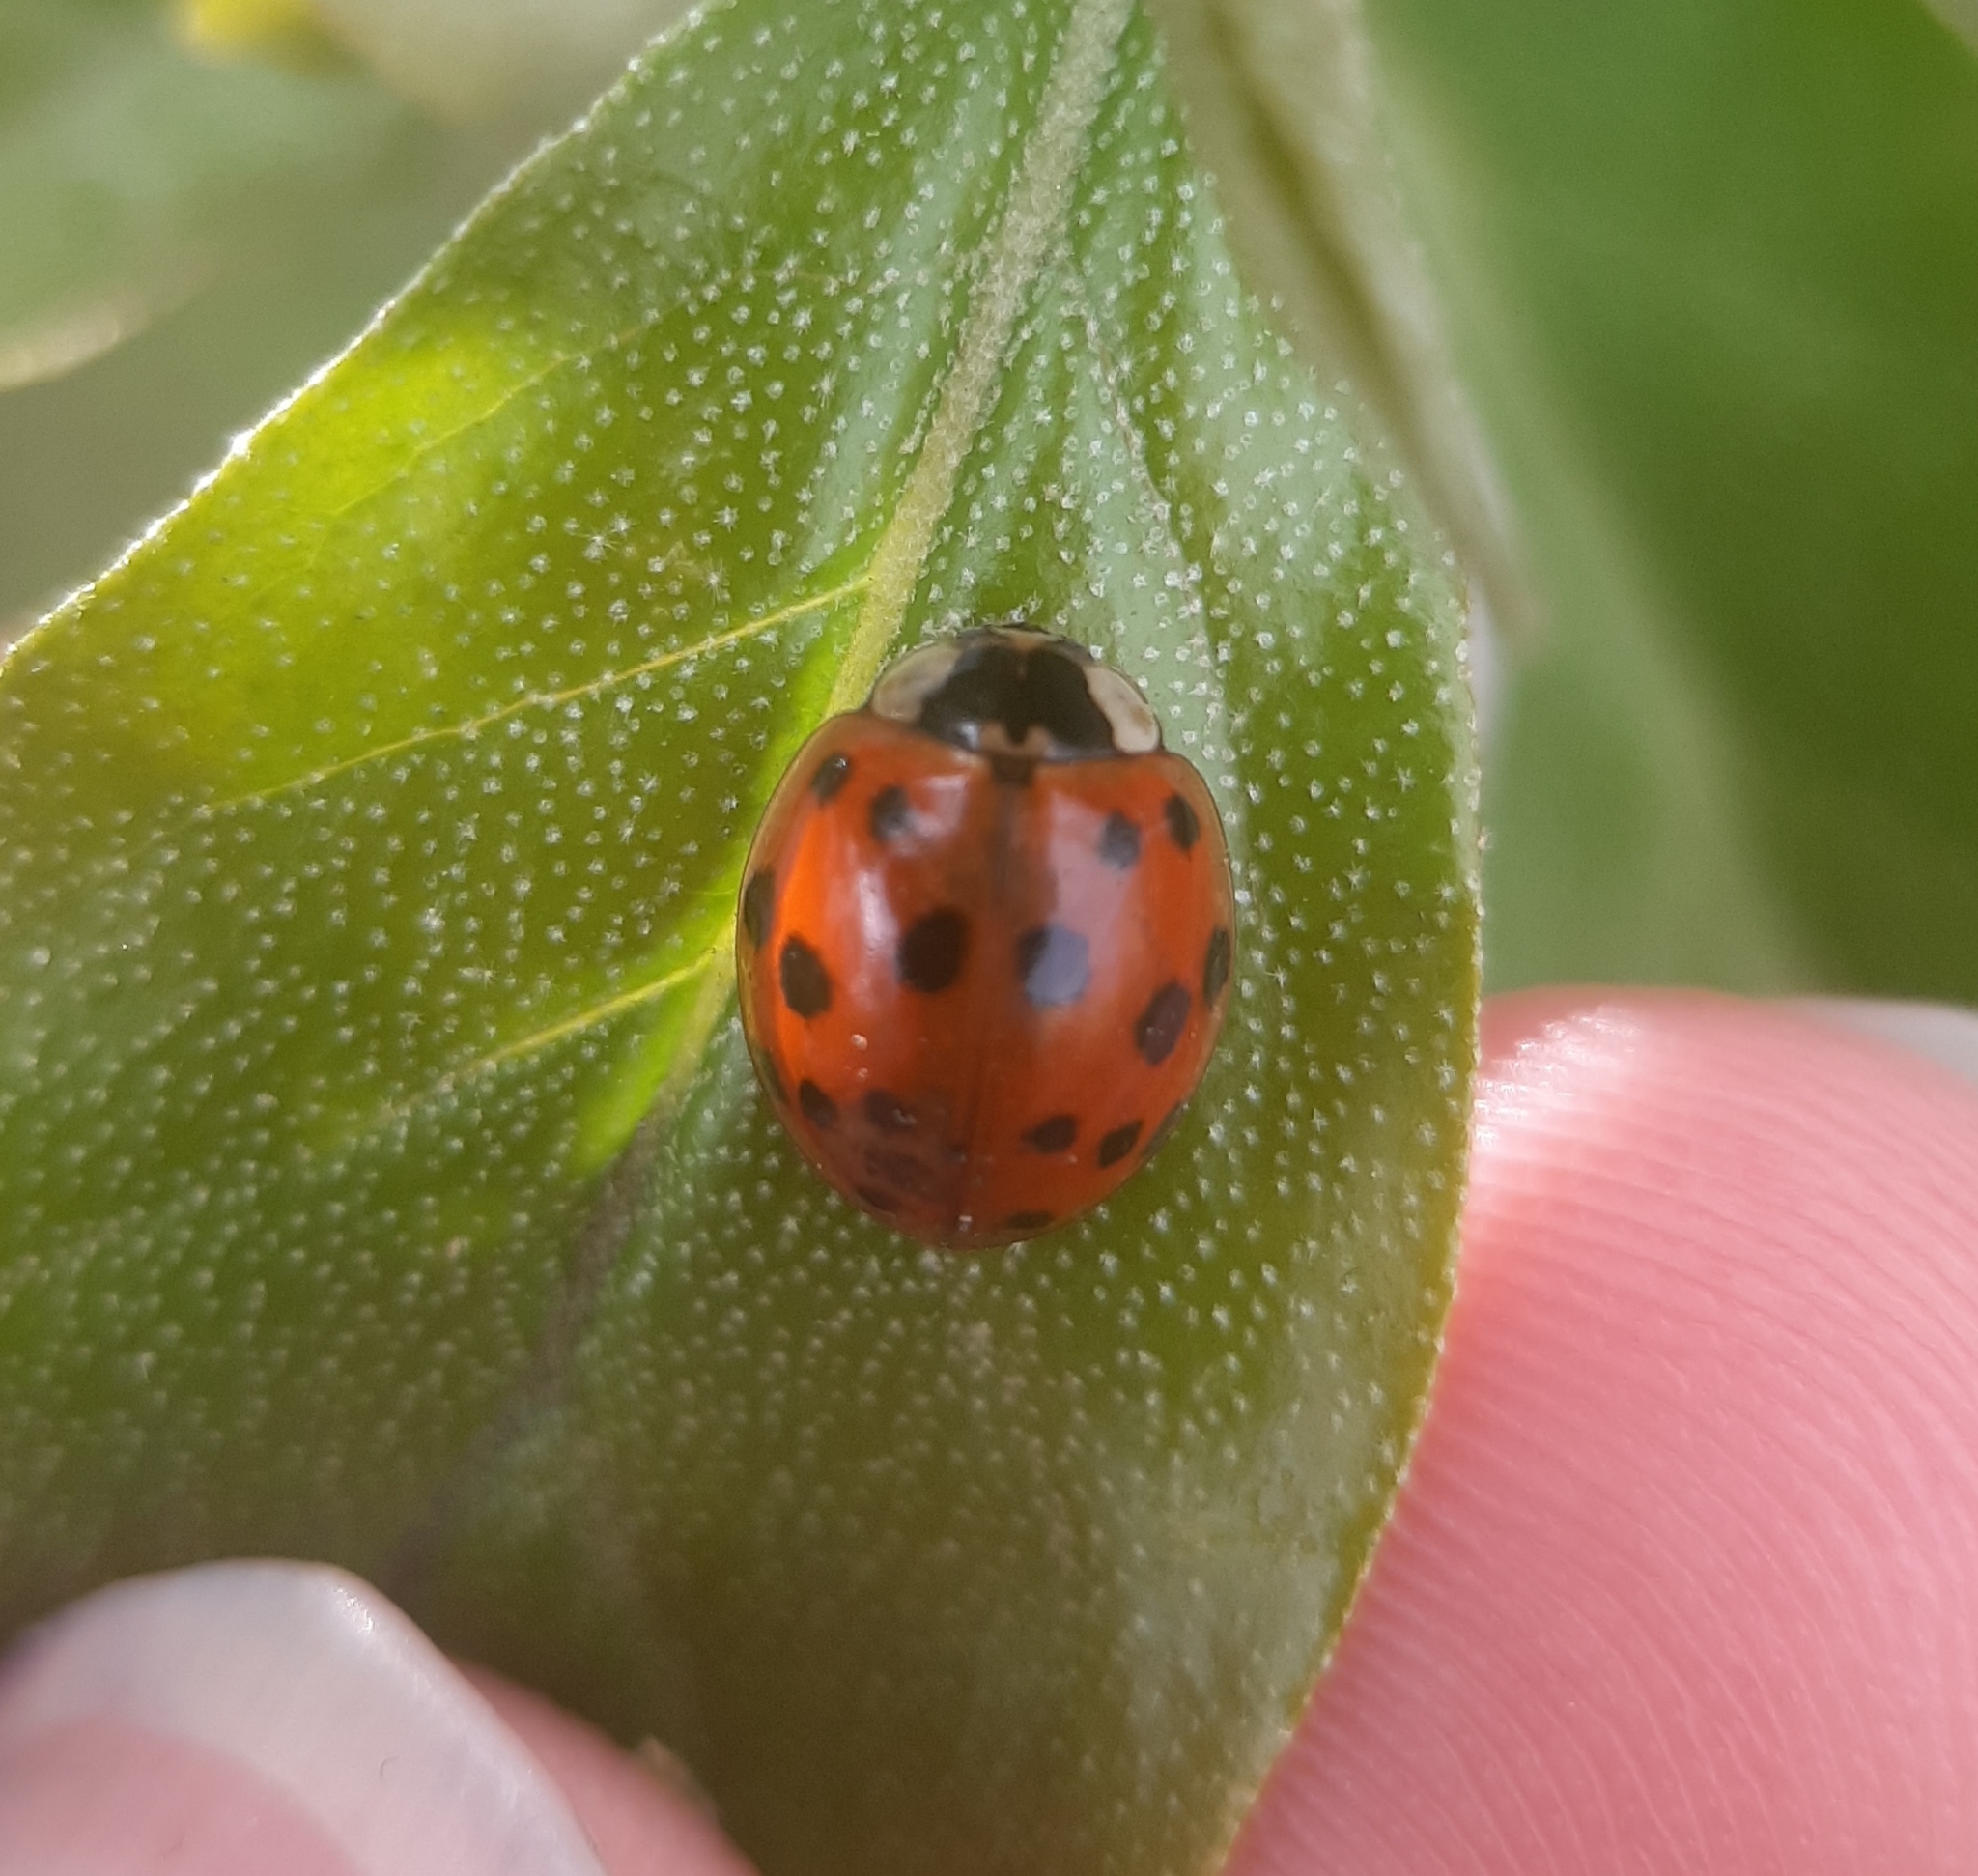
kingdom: Animalia
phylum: Arthropoda
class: Insecta
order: Coleoptera
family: Coccinellidae
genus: Harmonia
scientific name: Harmonia axyridis
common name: Harlequin ladybird
